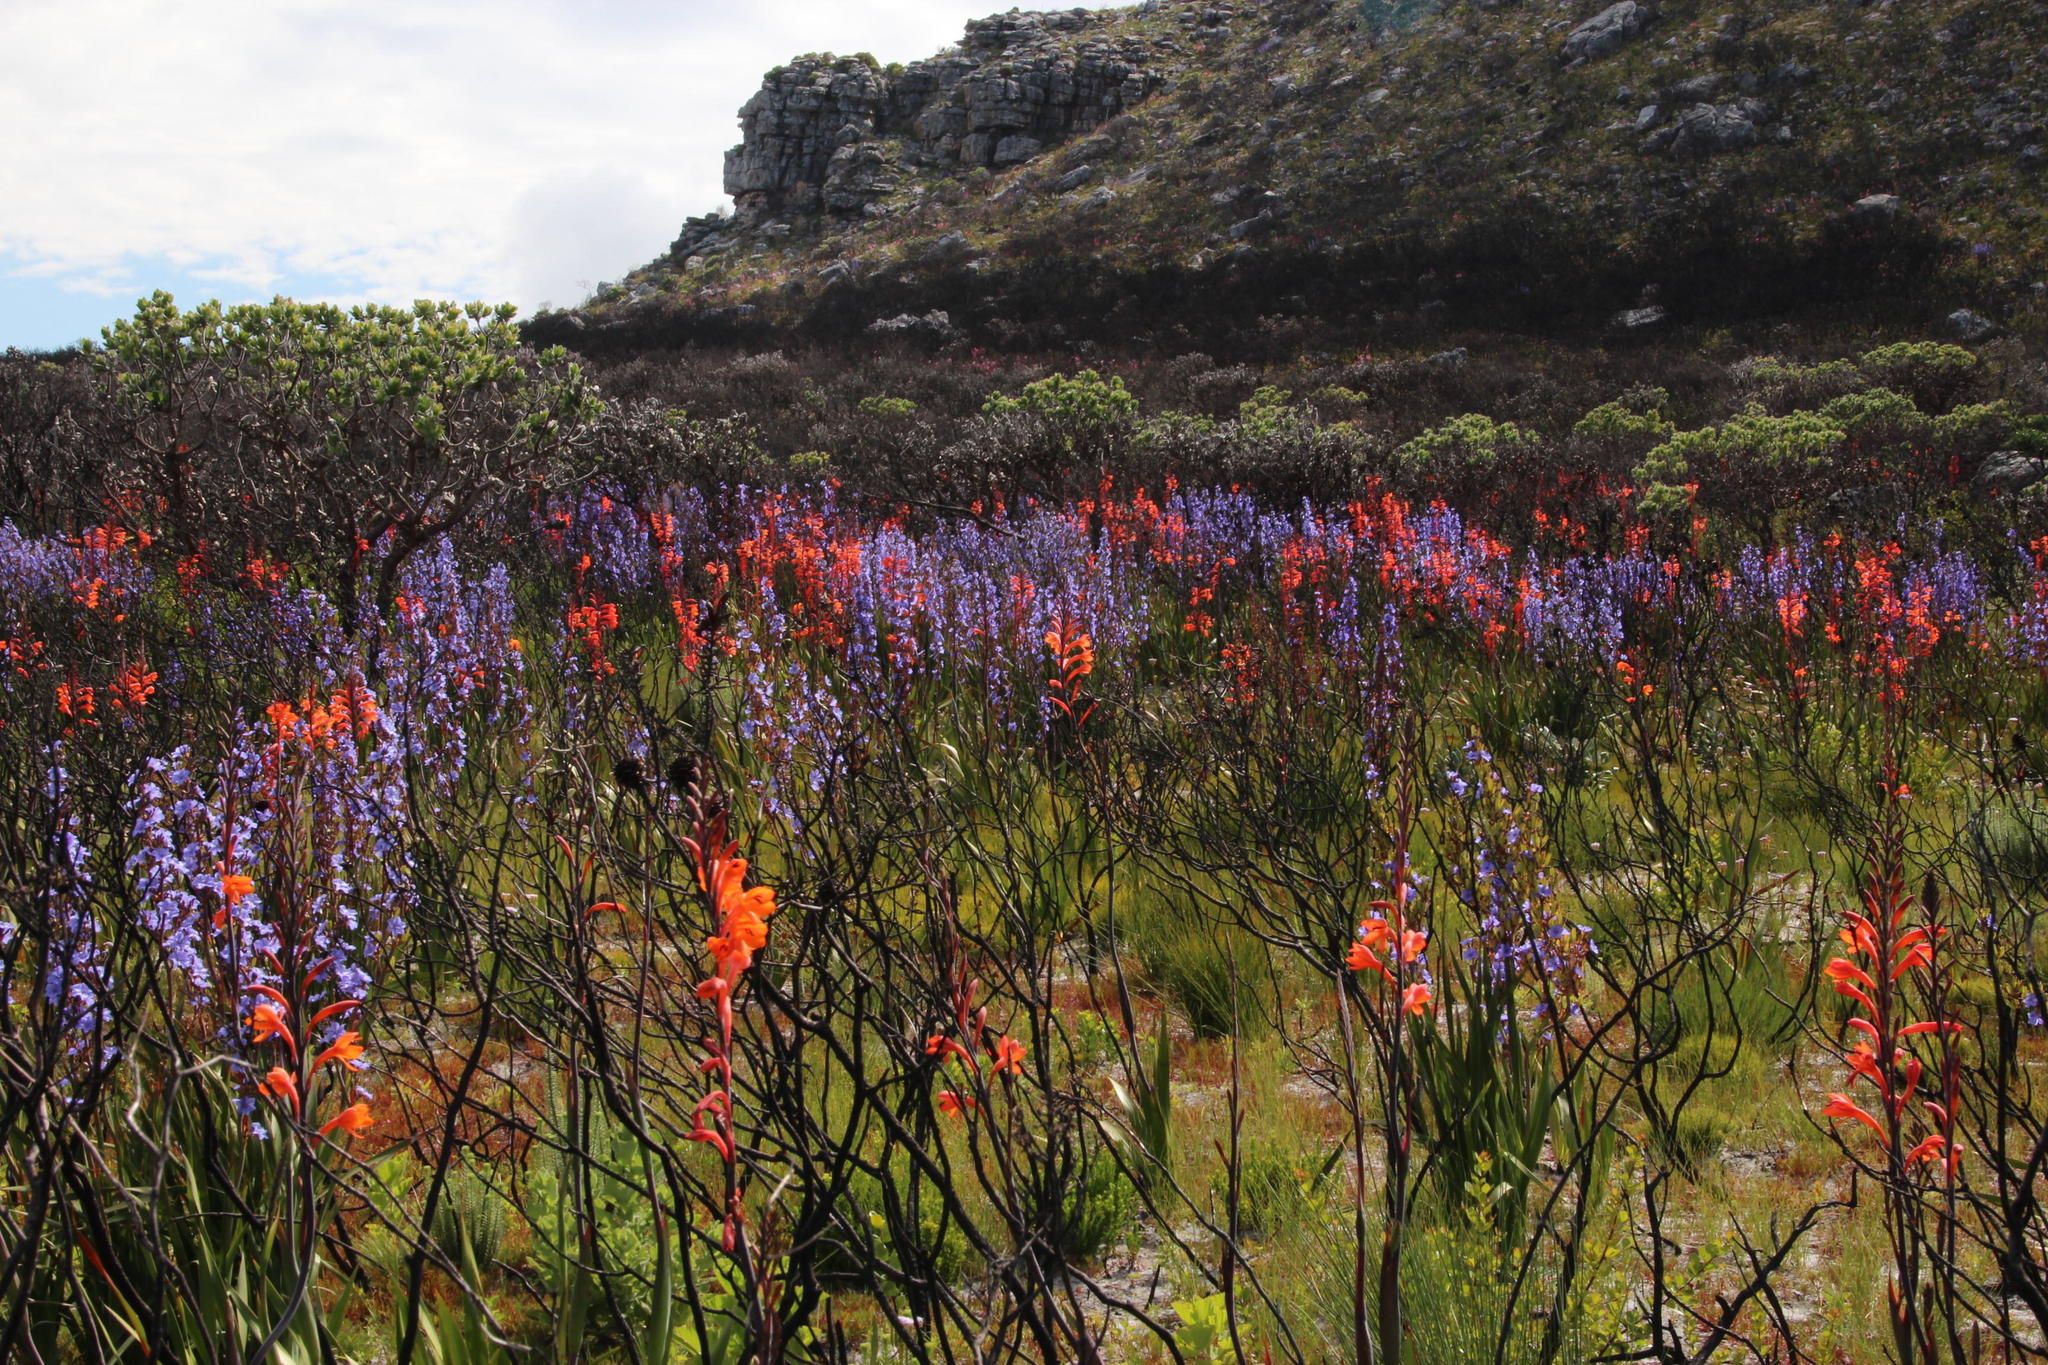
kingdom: Plantae
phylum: Tracheophyta
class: Liliopsida
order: Asparagales
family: Iridaceae
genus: Aristea
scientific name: Aristea bakeri
